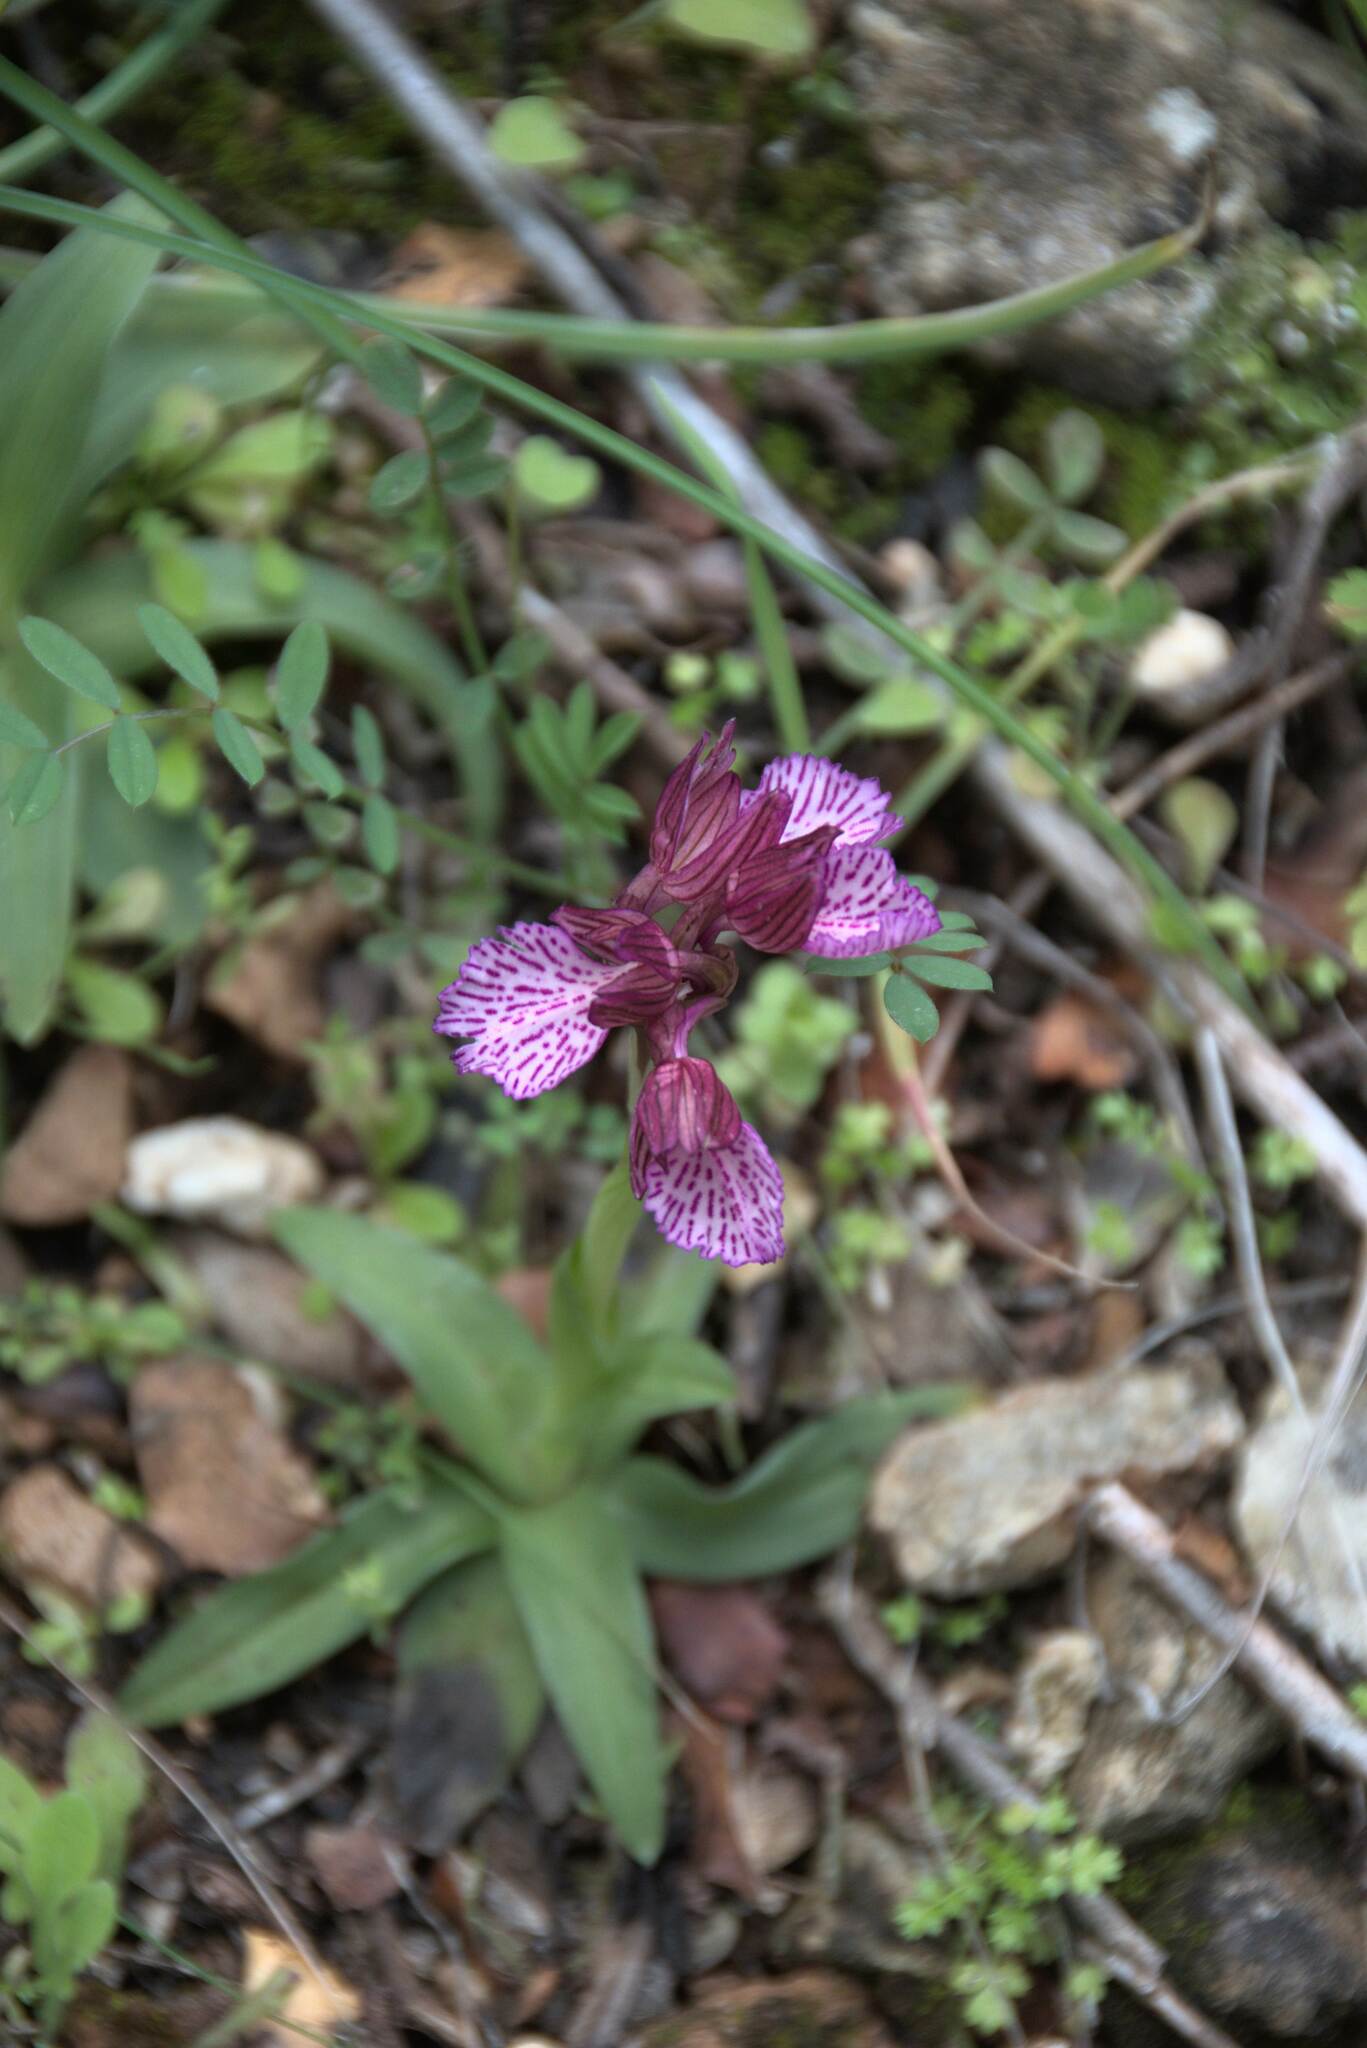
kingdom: Plantae
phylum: Tracheophyta
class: Liliopsida
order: Asparagales
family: Orchidaceae
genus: Anacamptis
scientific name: Anacamptis papilionacea
